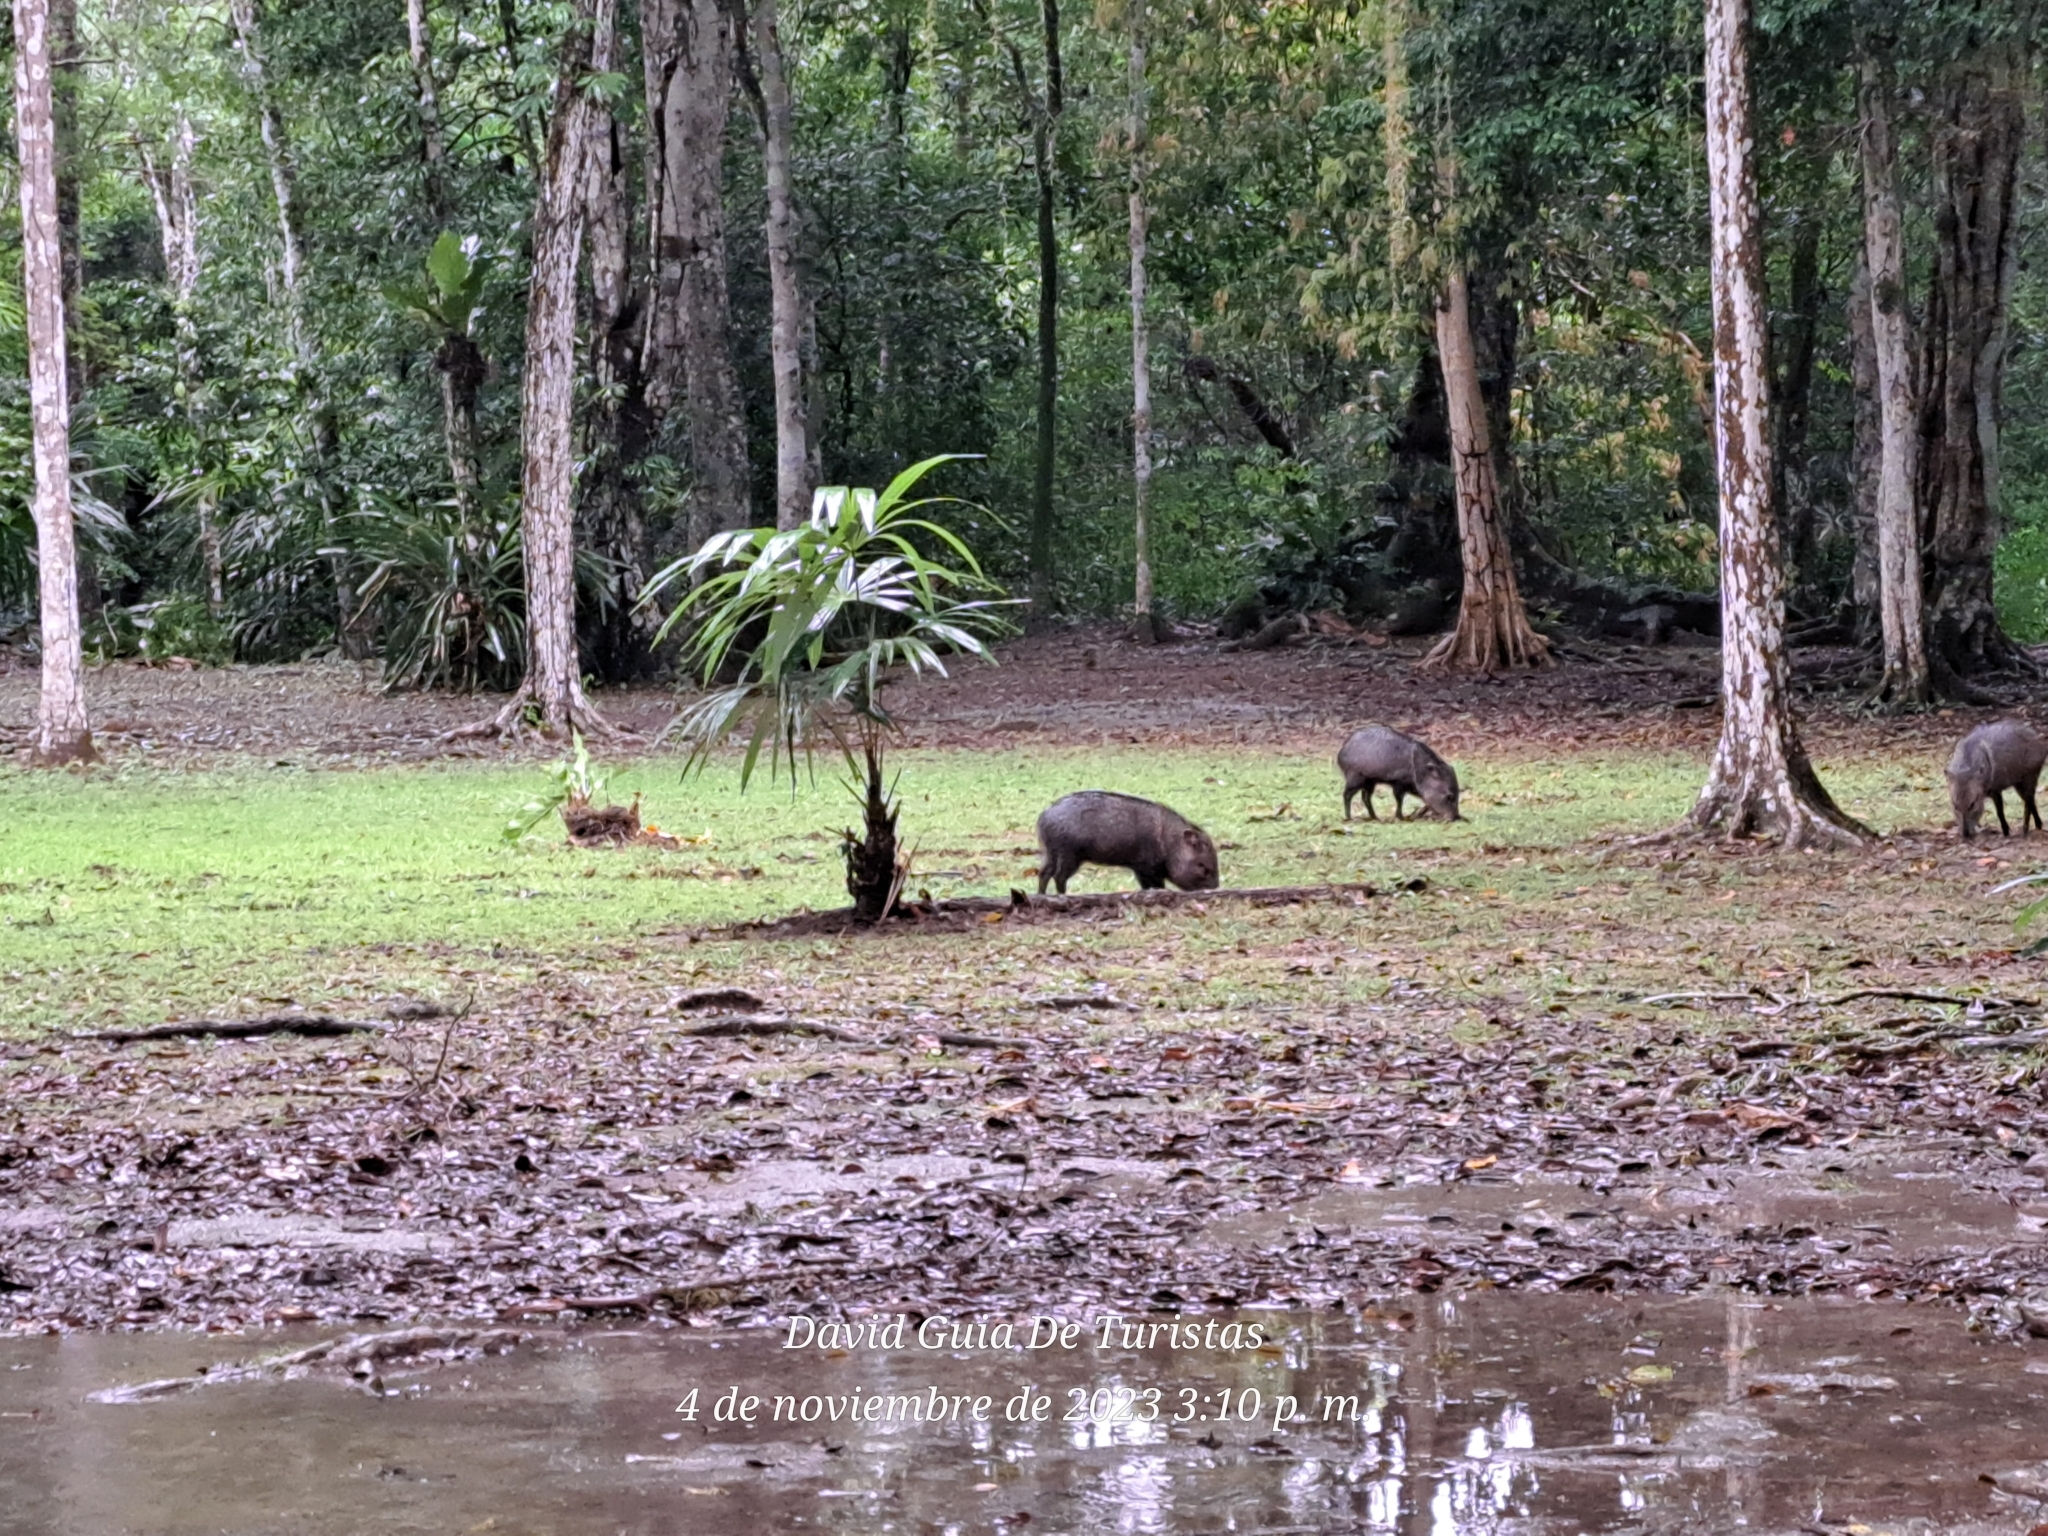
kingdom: Animalia
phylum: Chordata
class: Mammalia
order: Artiodactyla
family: Tayassuidae
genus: Pecari
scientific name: Pecari tajacu
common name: Collared peccary
